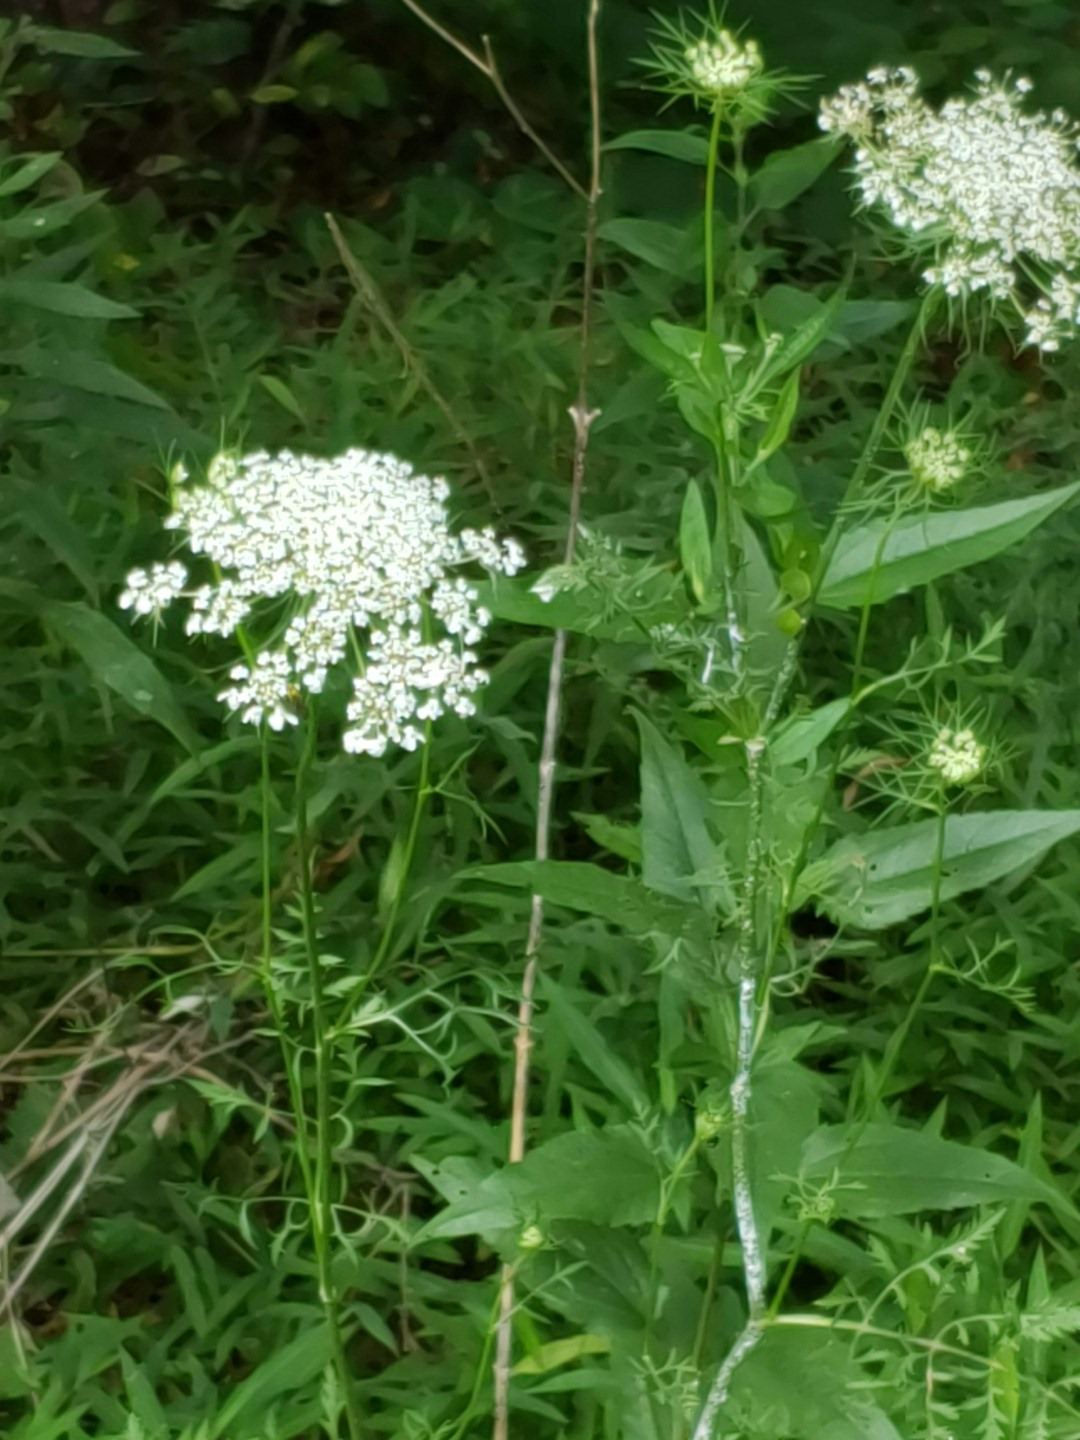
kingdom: Plantae
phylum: Tracheophyta
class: Magnoliopsida
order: Apiales
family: Apiaceae
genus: Daucus
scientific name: Daucus carota
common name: Wild carrot
